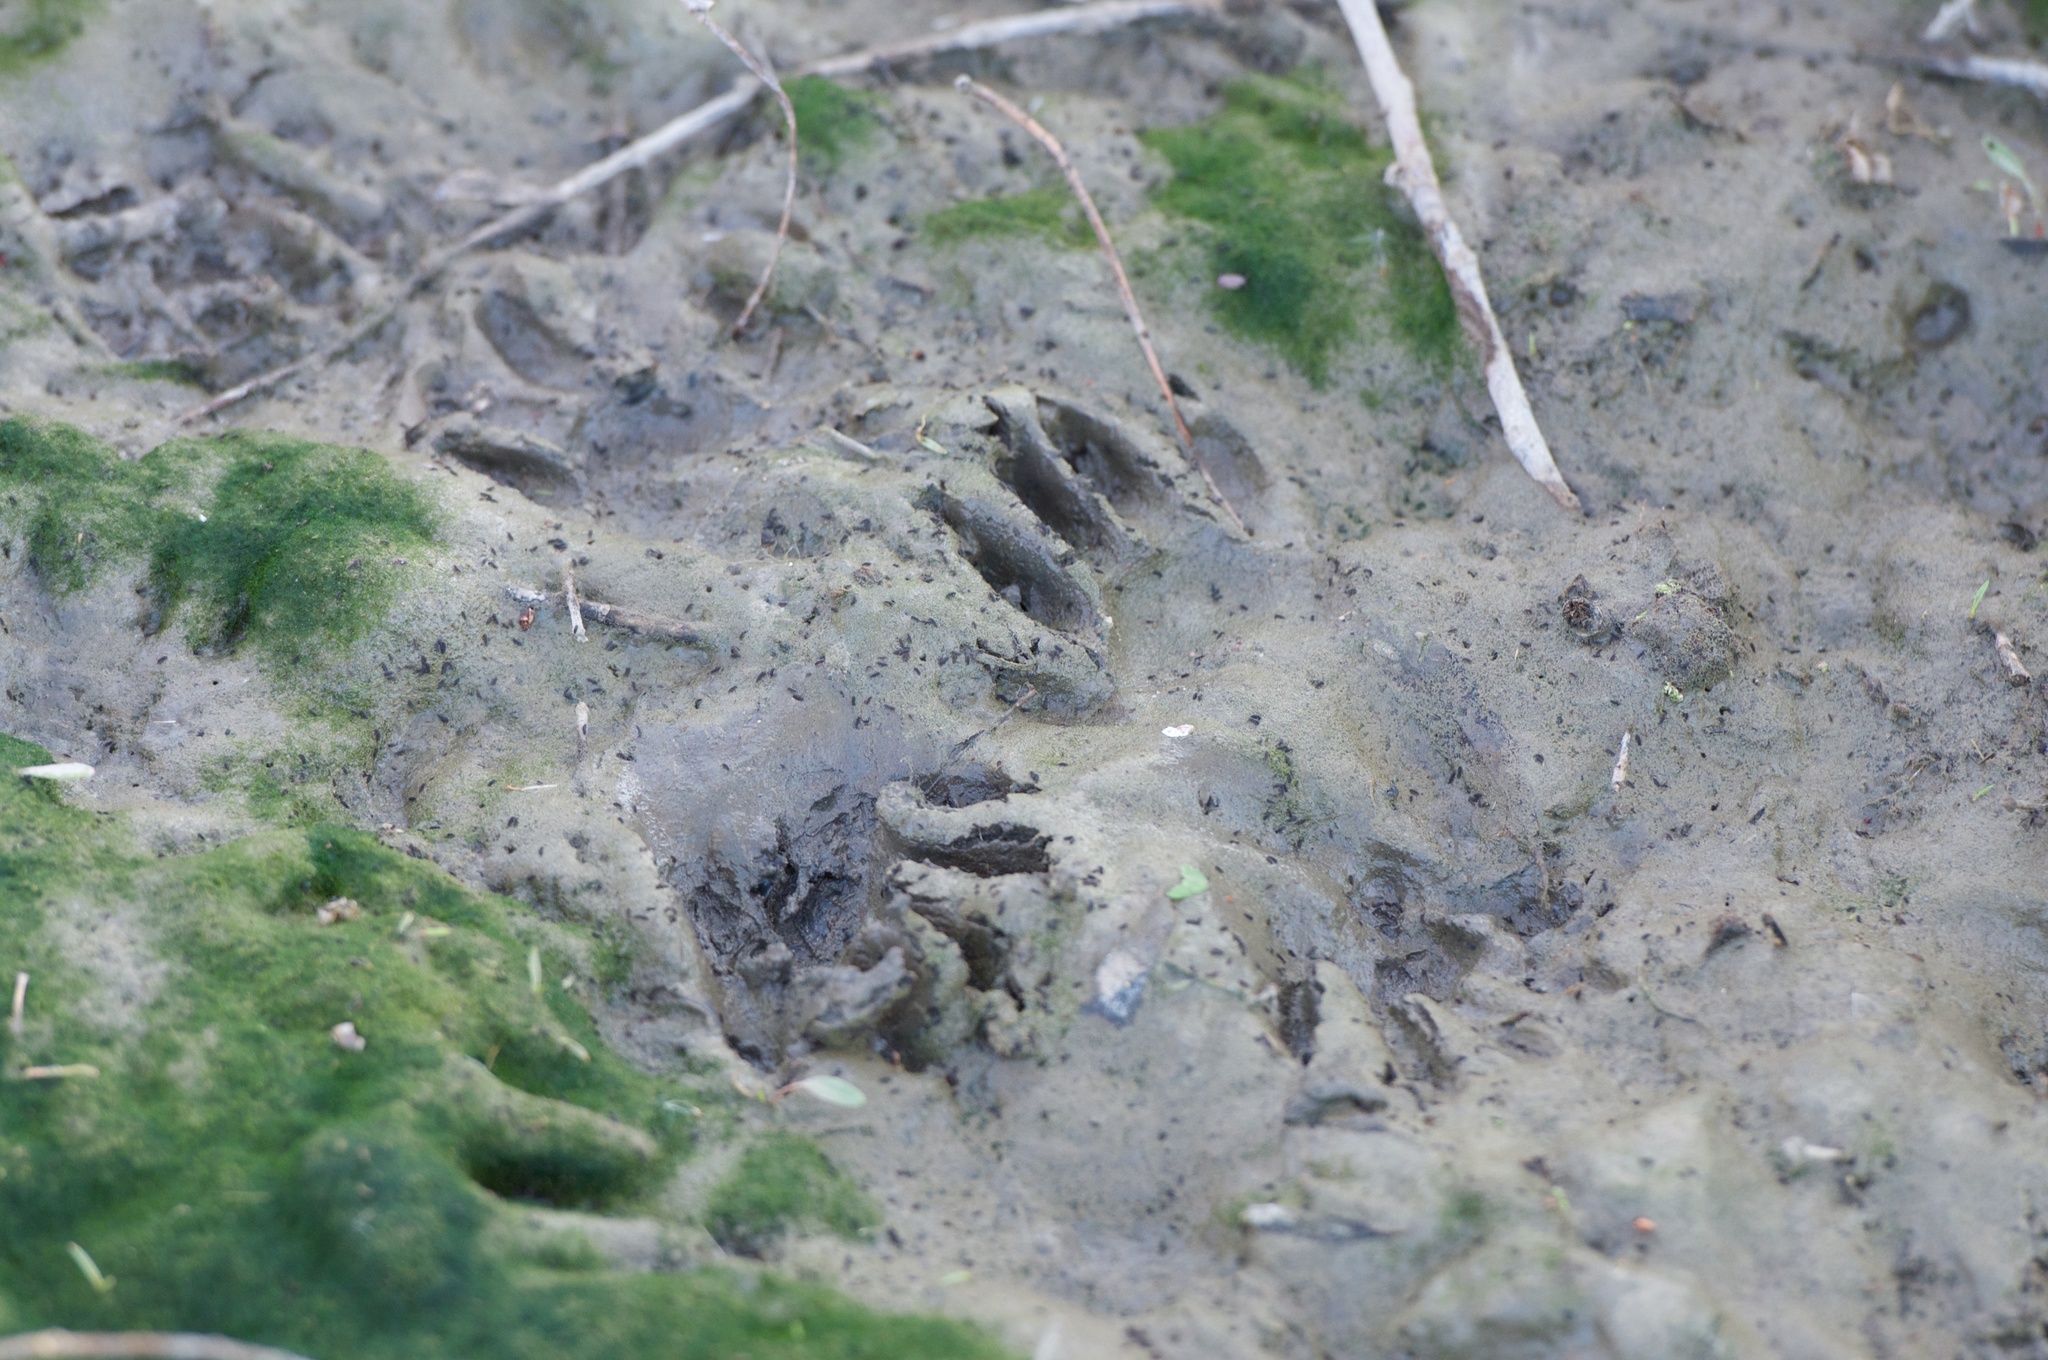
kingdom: Animalia
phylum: Chordata
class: Mammalia
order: Carnivora
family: Procyonidae
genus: Procyon
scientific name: Procyon lotor
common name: Raccoon
